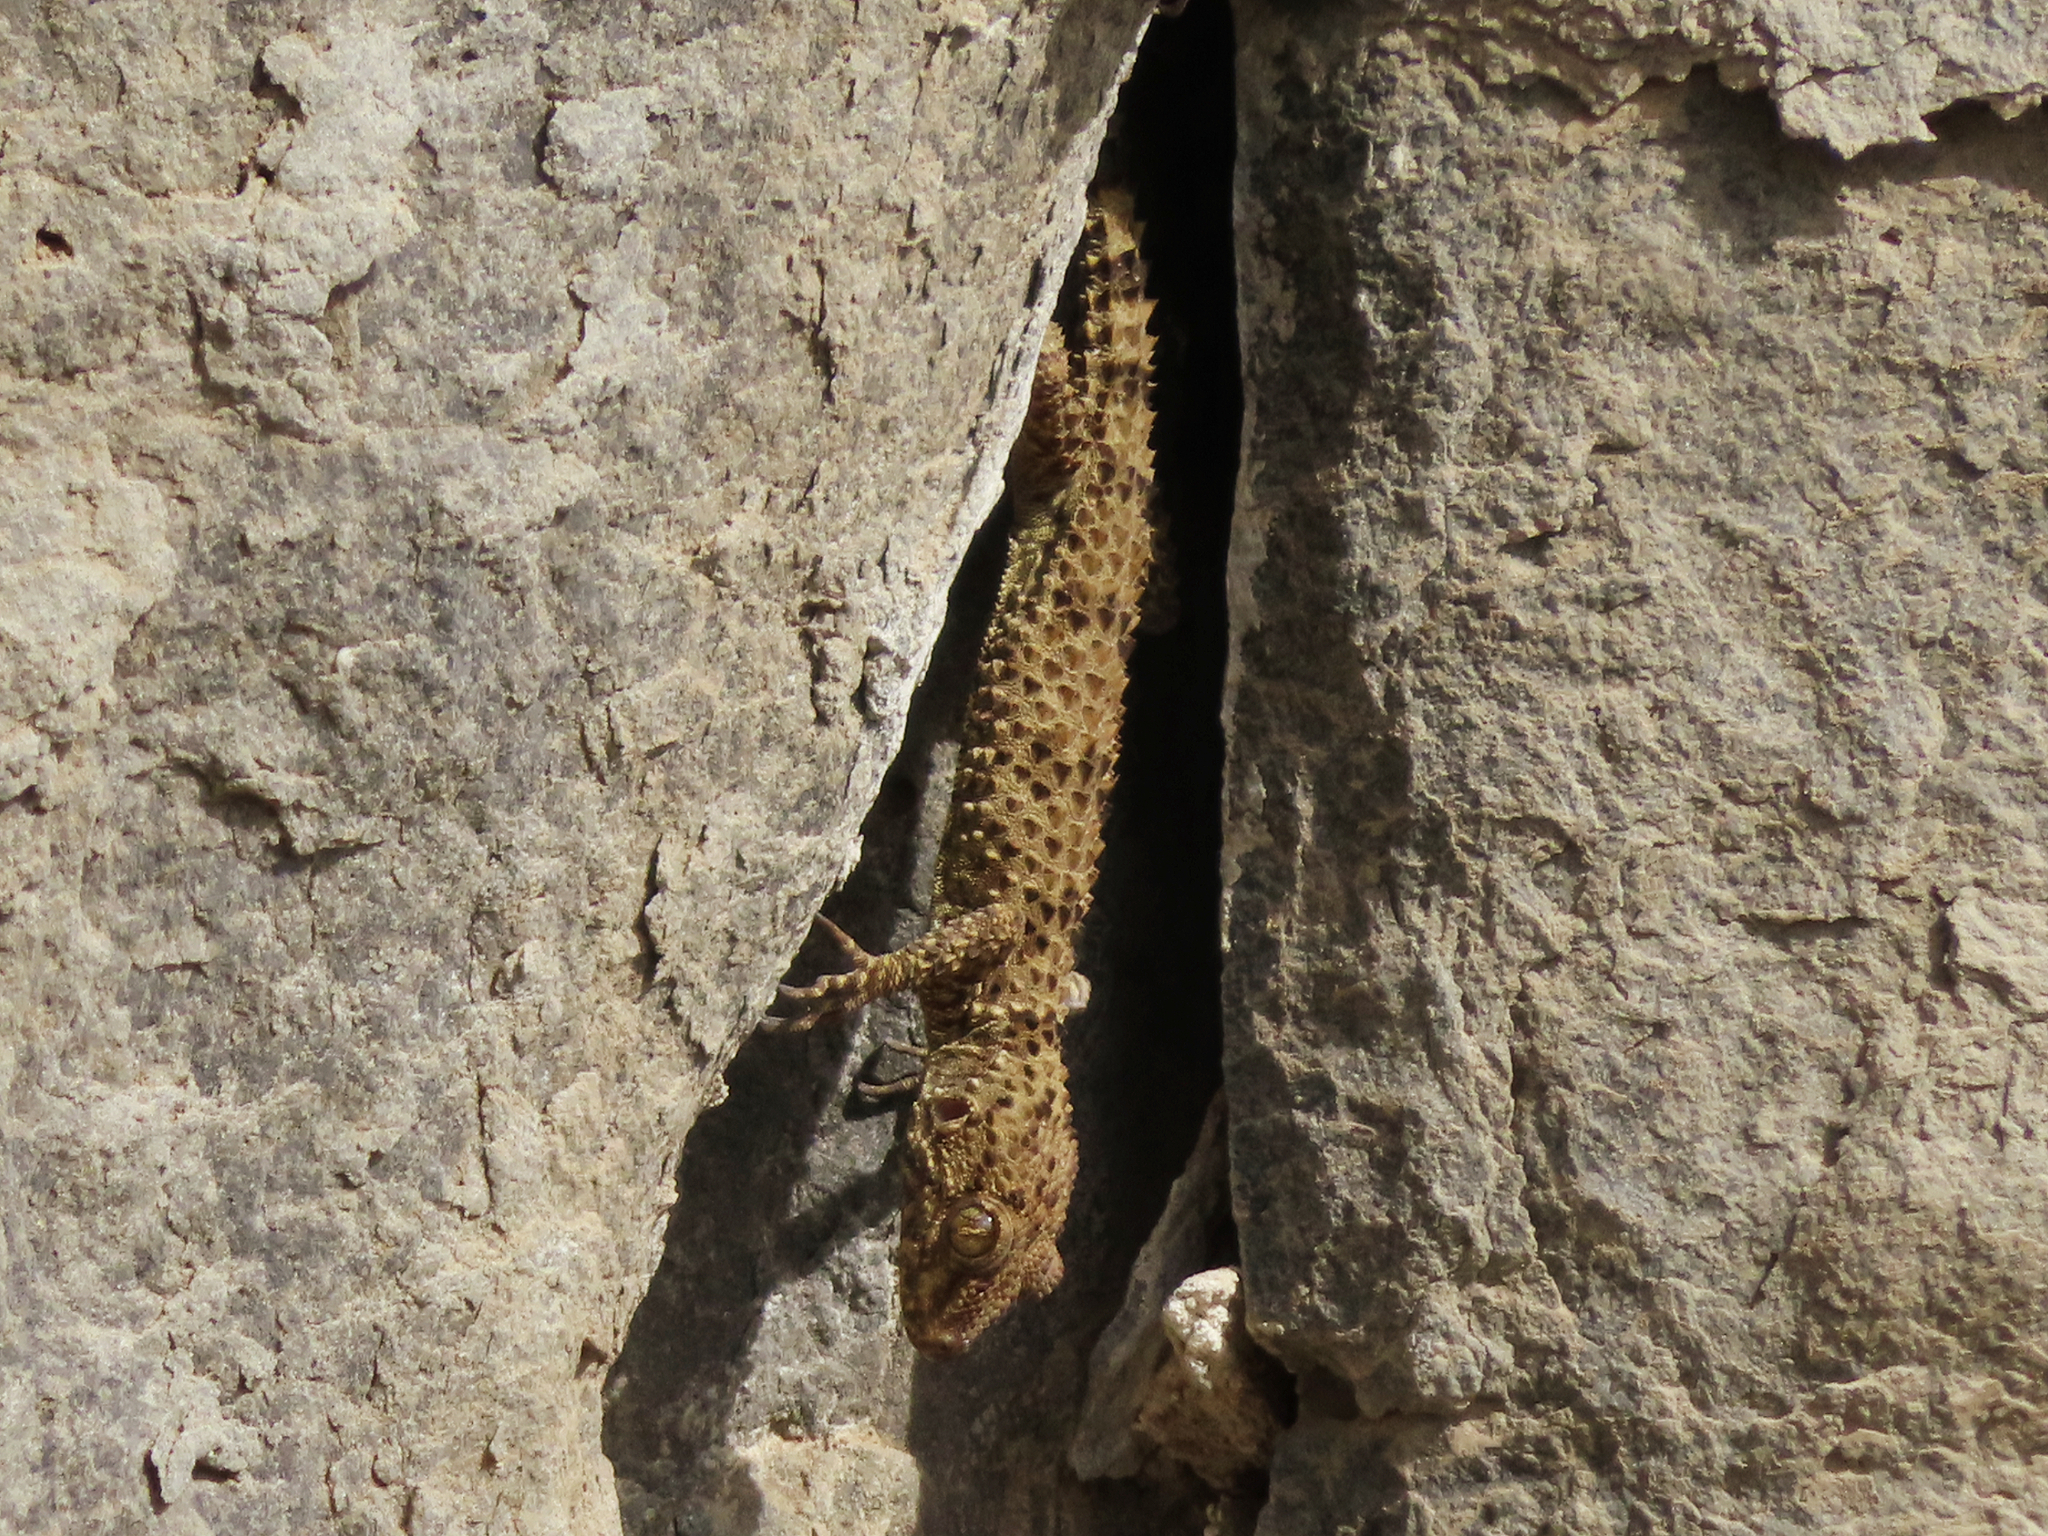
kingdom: Animalia
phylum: Chordata
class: Squamata
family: Gekkonidae
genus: Tenuidactylus
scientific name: Tenuidactylus caspius
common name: Caspian bent-toed gecko
